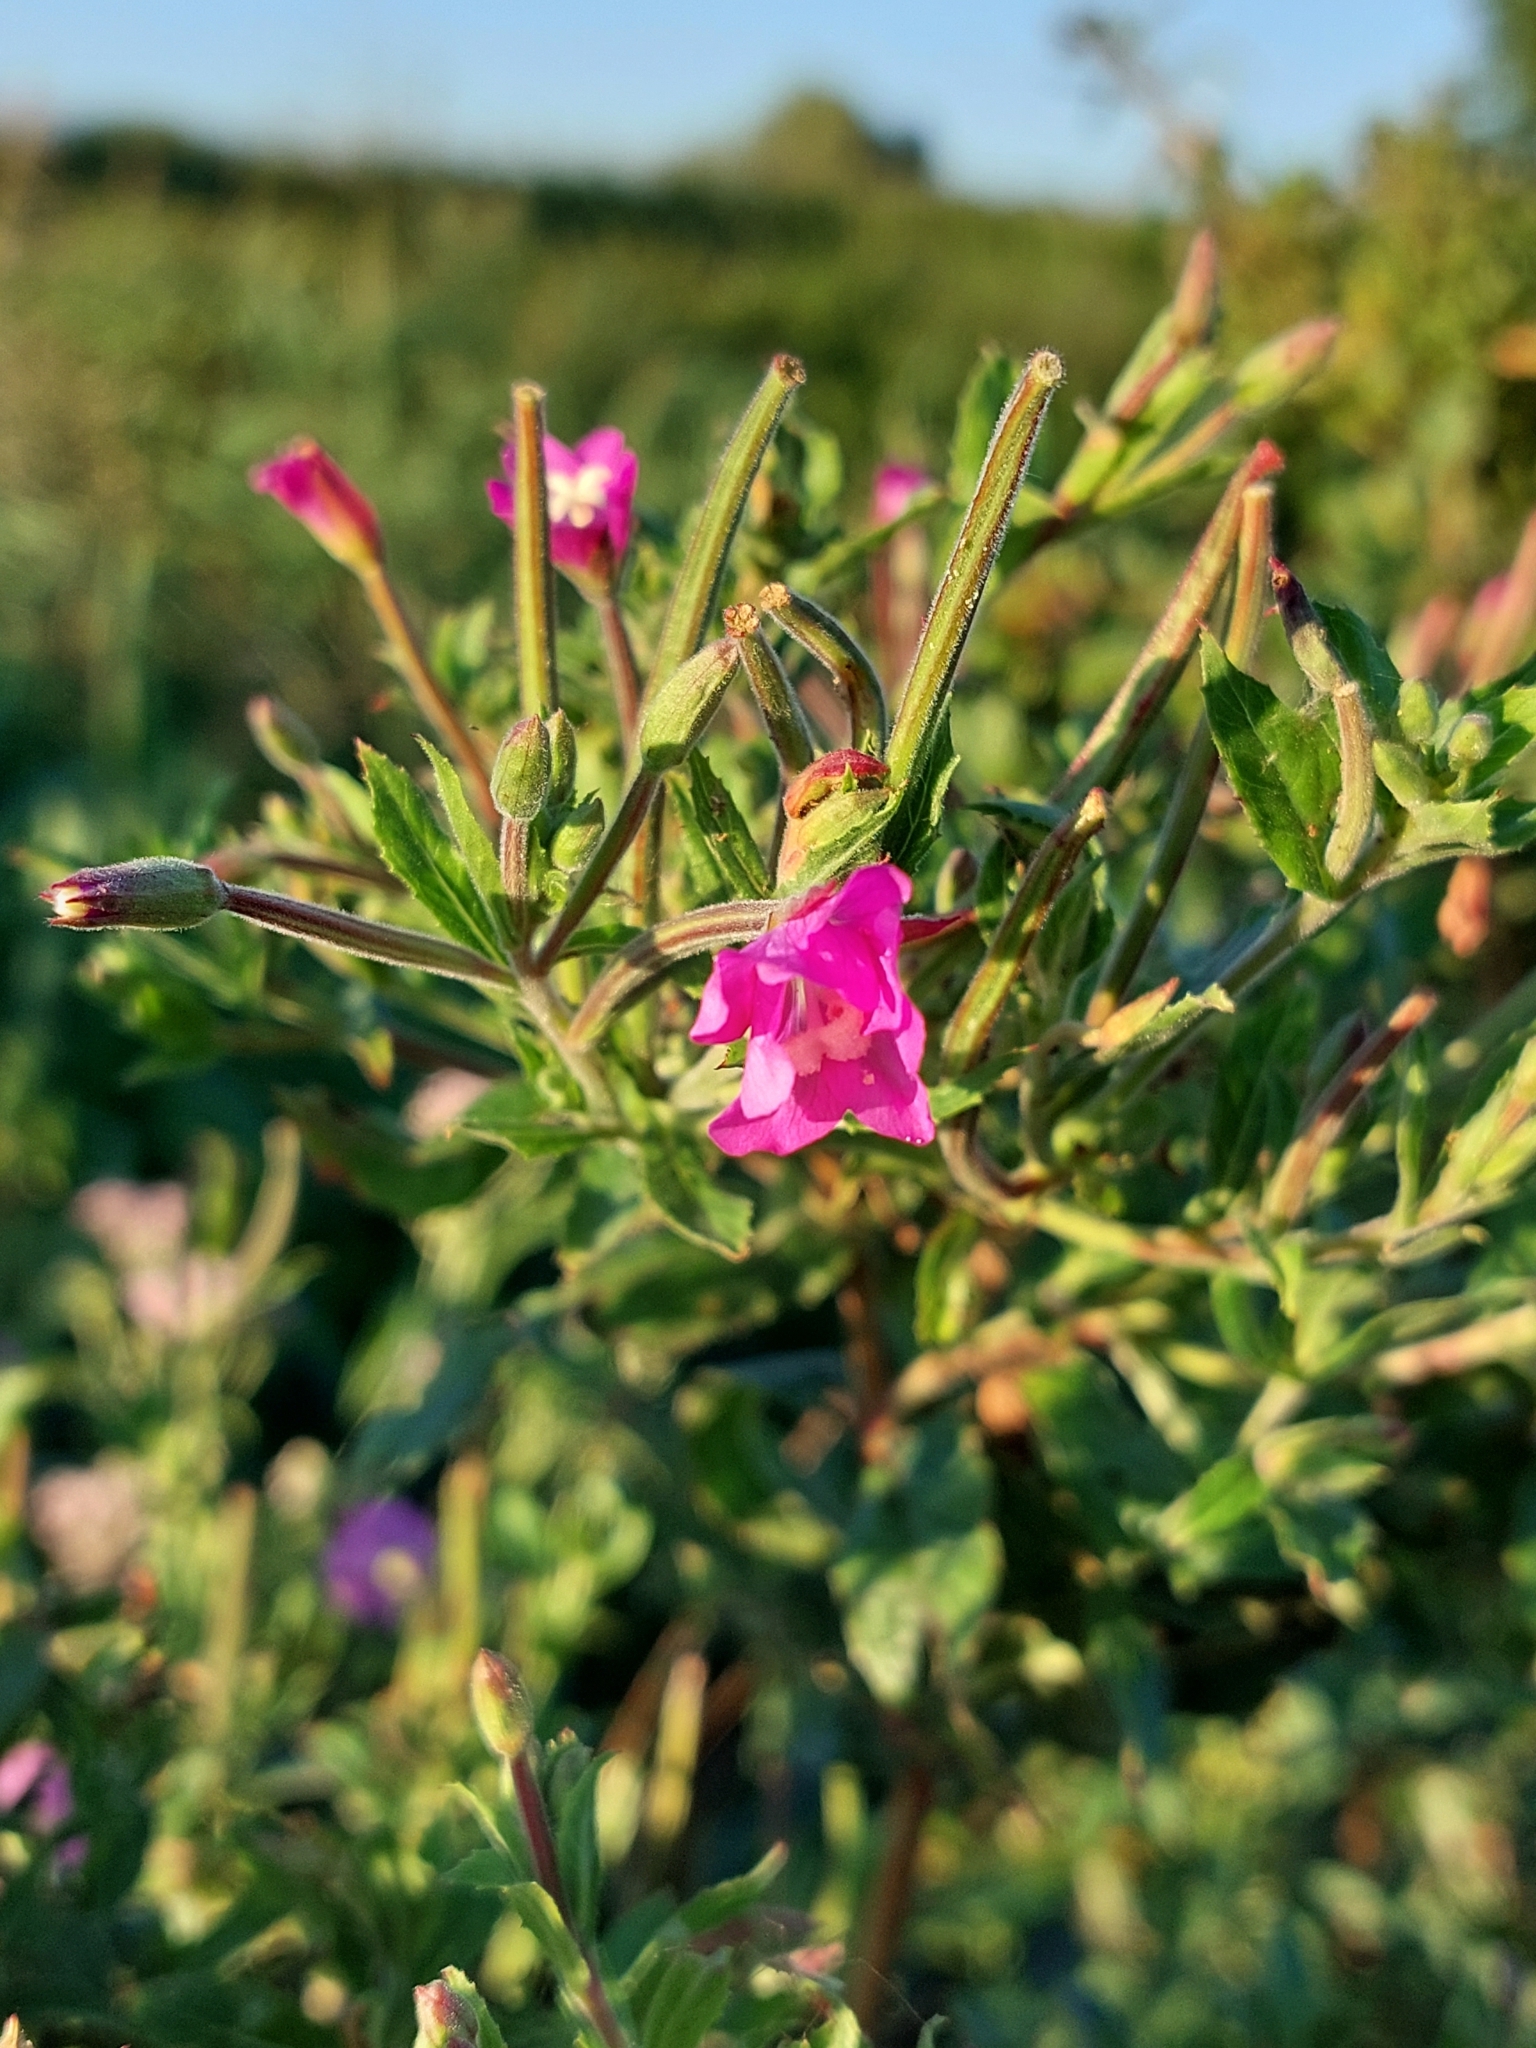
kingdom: Plantae
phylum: Tracheophyta
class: Magnoliopsida
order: Myrtales
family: Onagraceae
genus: Epilobium
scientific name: Epilobium hirsutum
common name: Great willowherb
